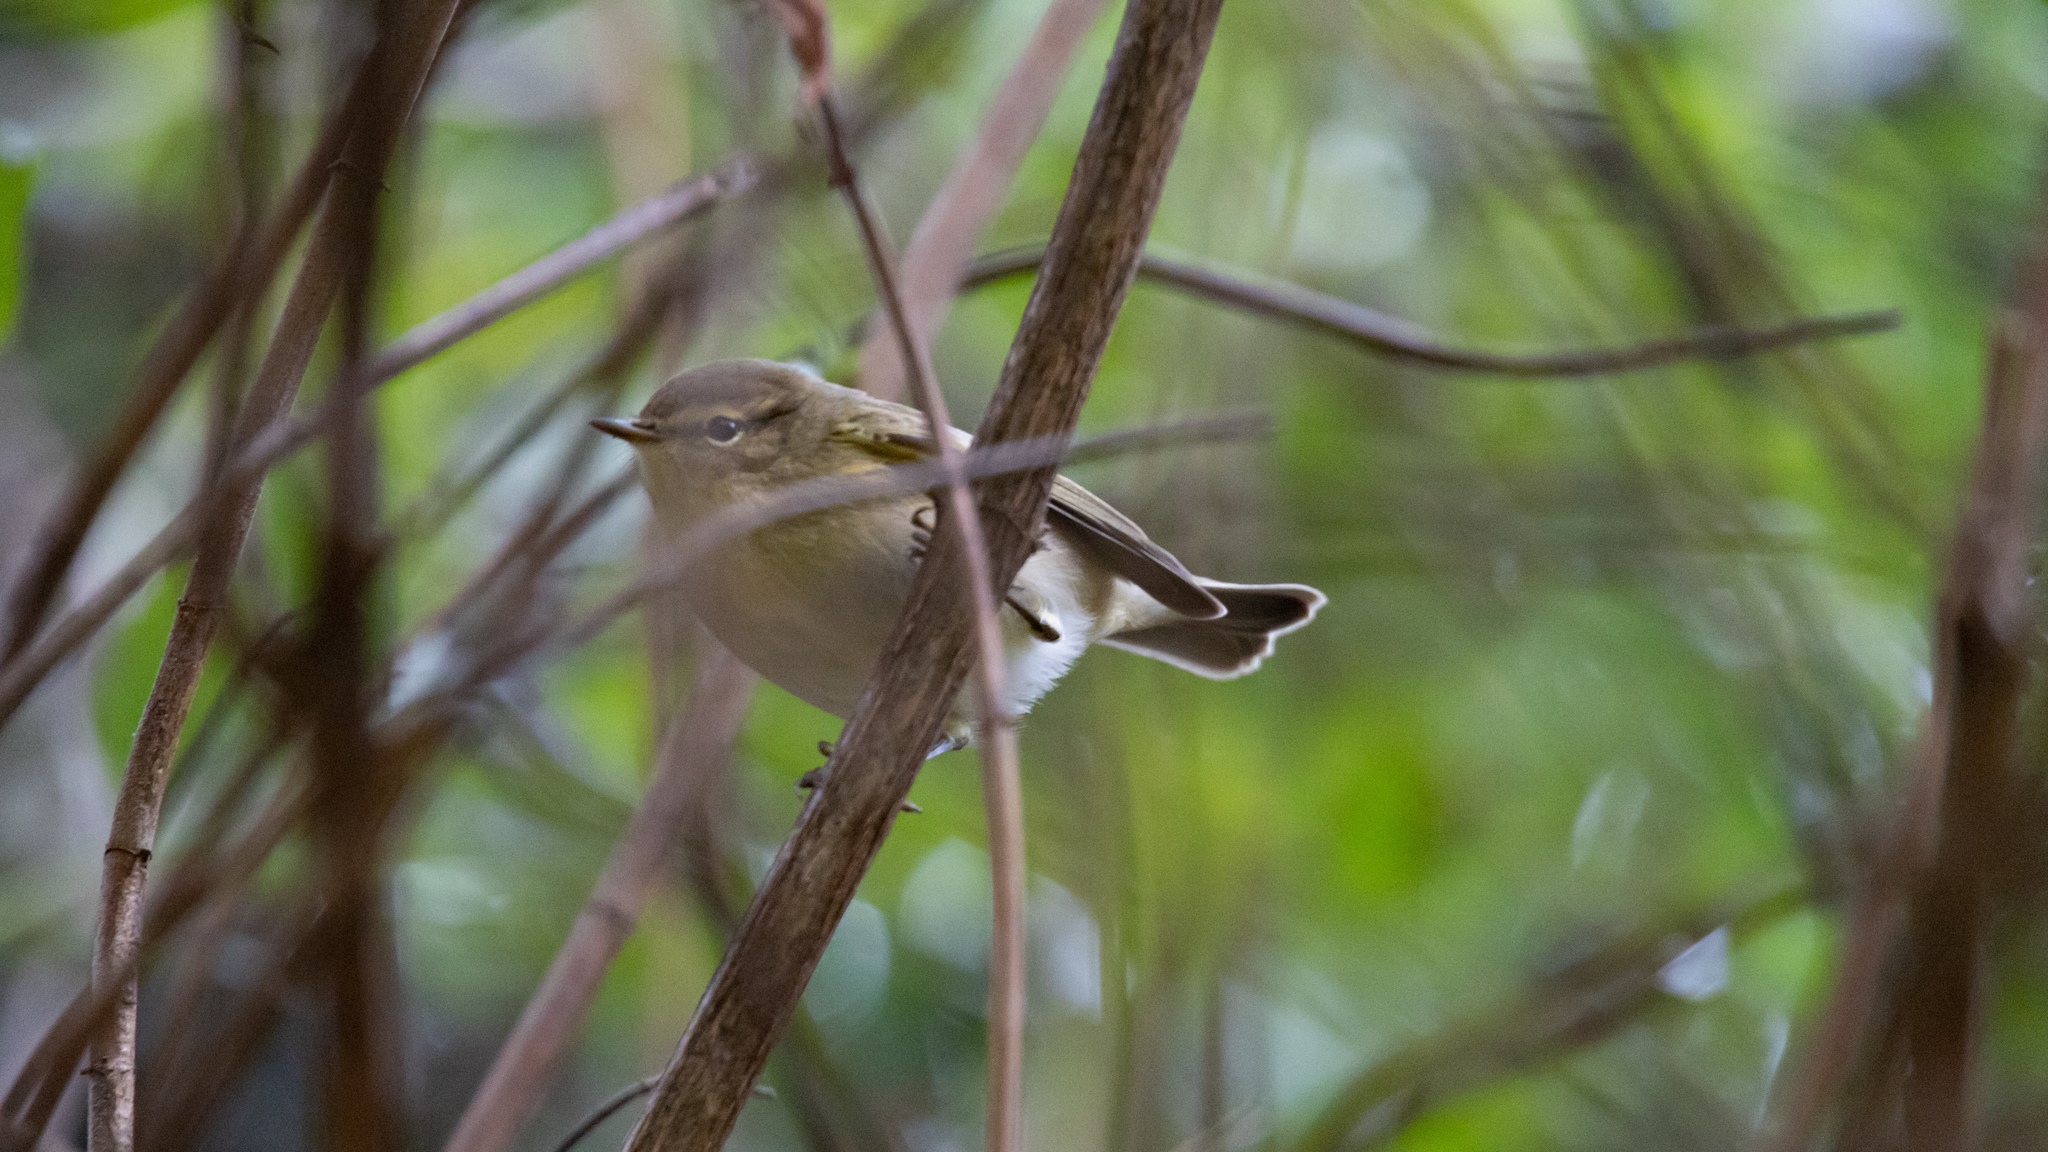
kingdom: Animalia
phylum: Chordata
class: Aves
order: Passeriformes
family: Phylloscopidae
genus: Phylloscopus
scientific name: Phylloscopus collybita
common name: Common chiffchaff
